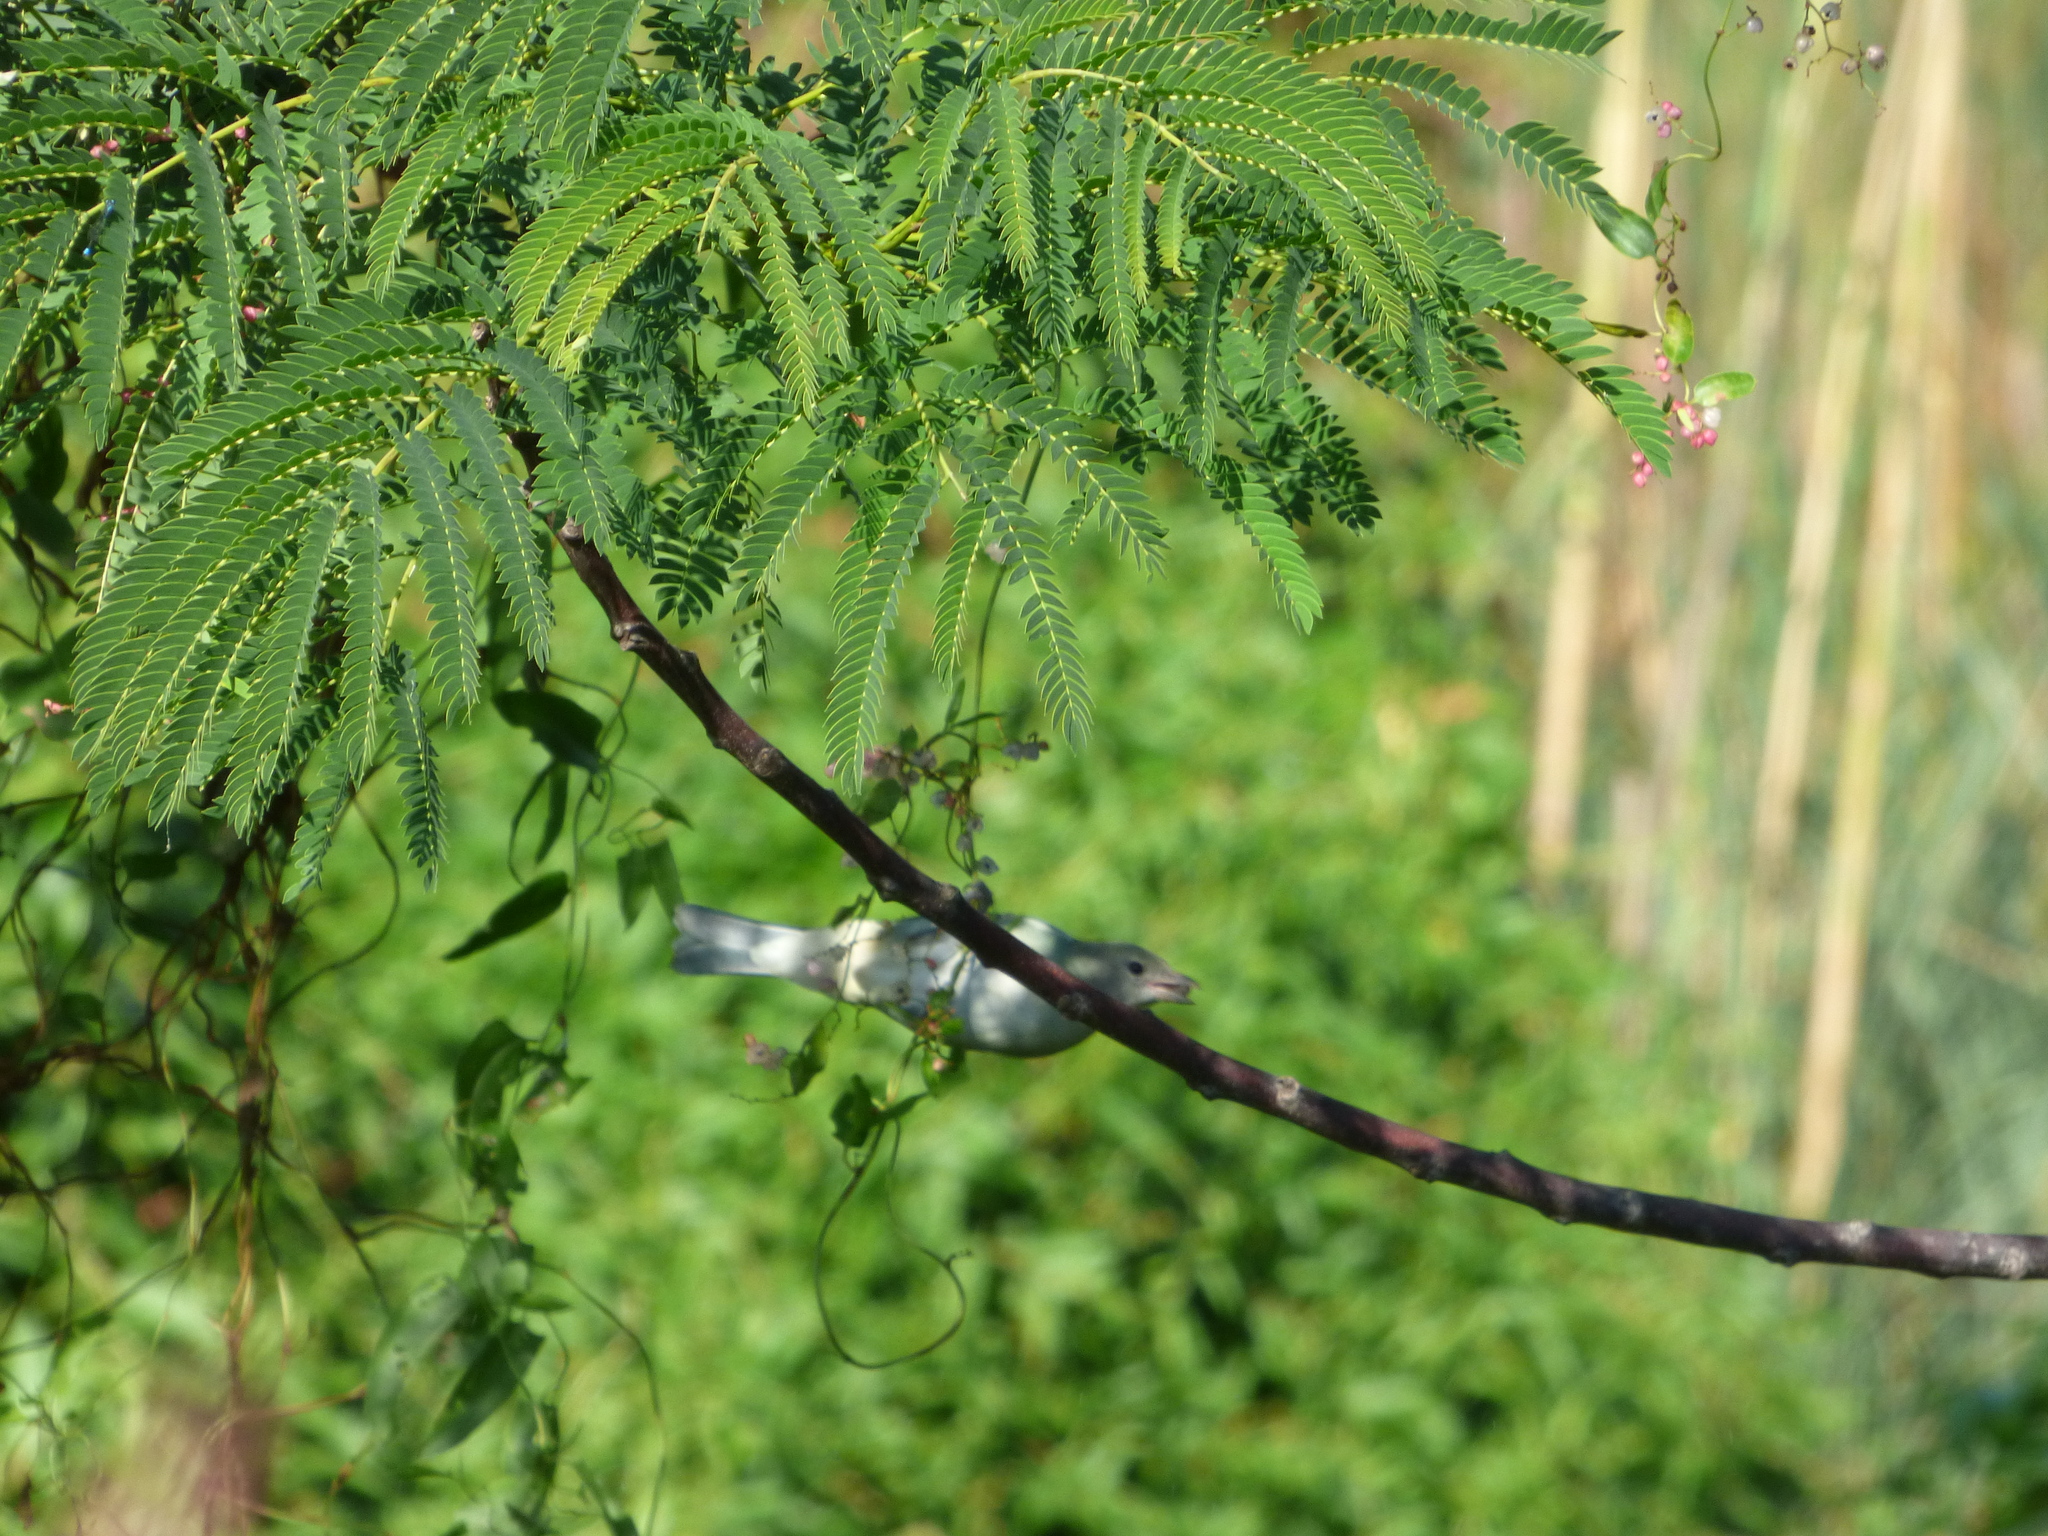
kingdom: Animalia
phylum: Chordata
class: Aves
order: Passeriformes
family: Thraupidae
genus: Thraupis
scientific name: Thraupis sayaca
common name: Sayaca tanager
